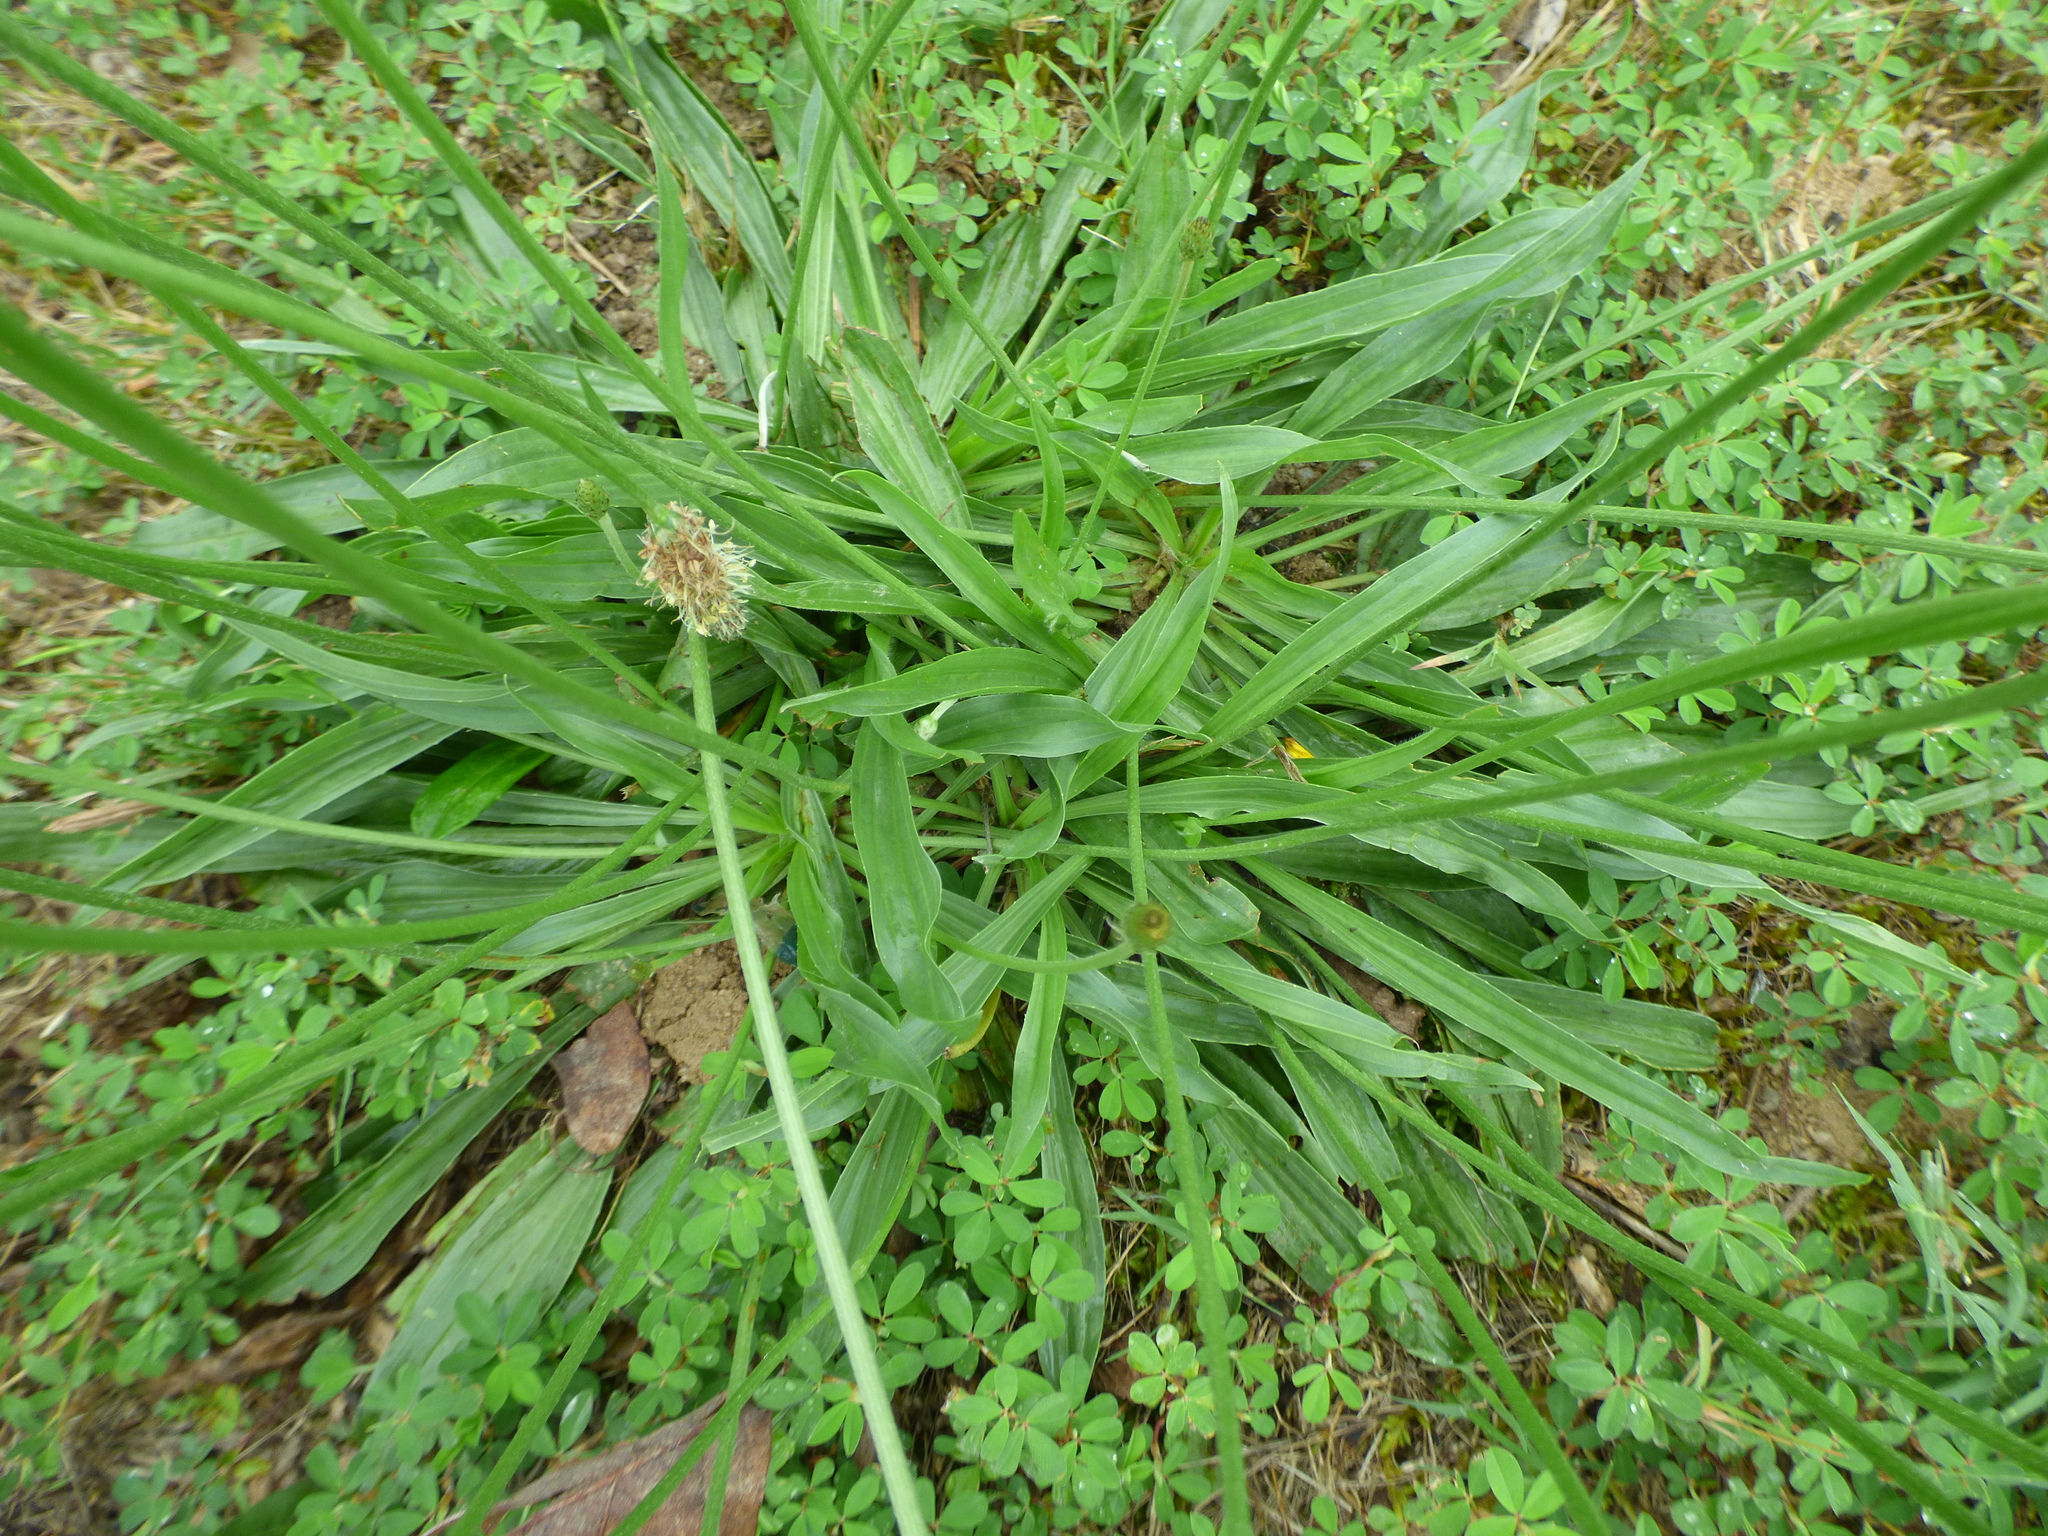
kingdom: Plantae
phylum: Tracheophyta
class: Magnoliopsida
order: Lamiales
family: Plantaginaceae
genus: Plantago
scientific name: Plantago lanceolata
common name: Ribwort plantain
